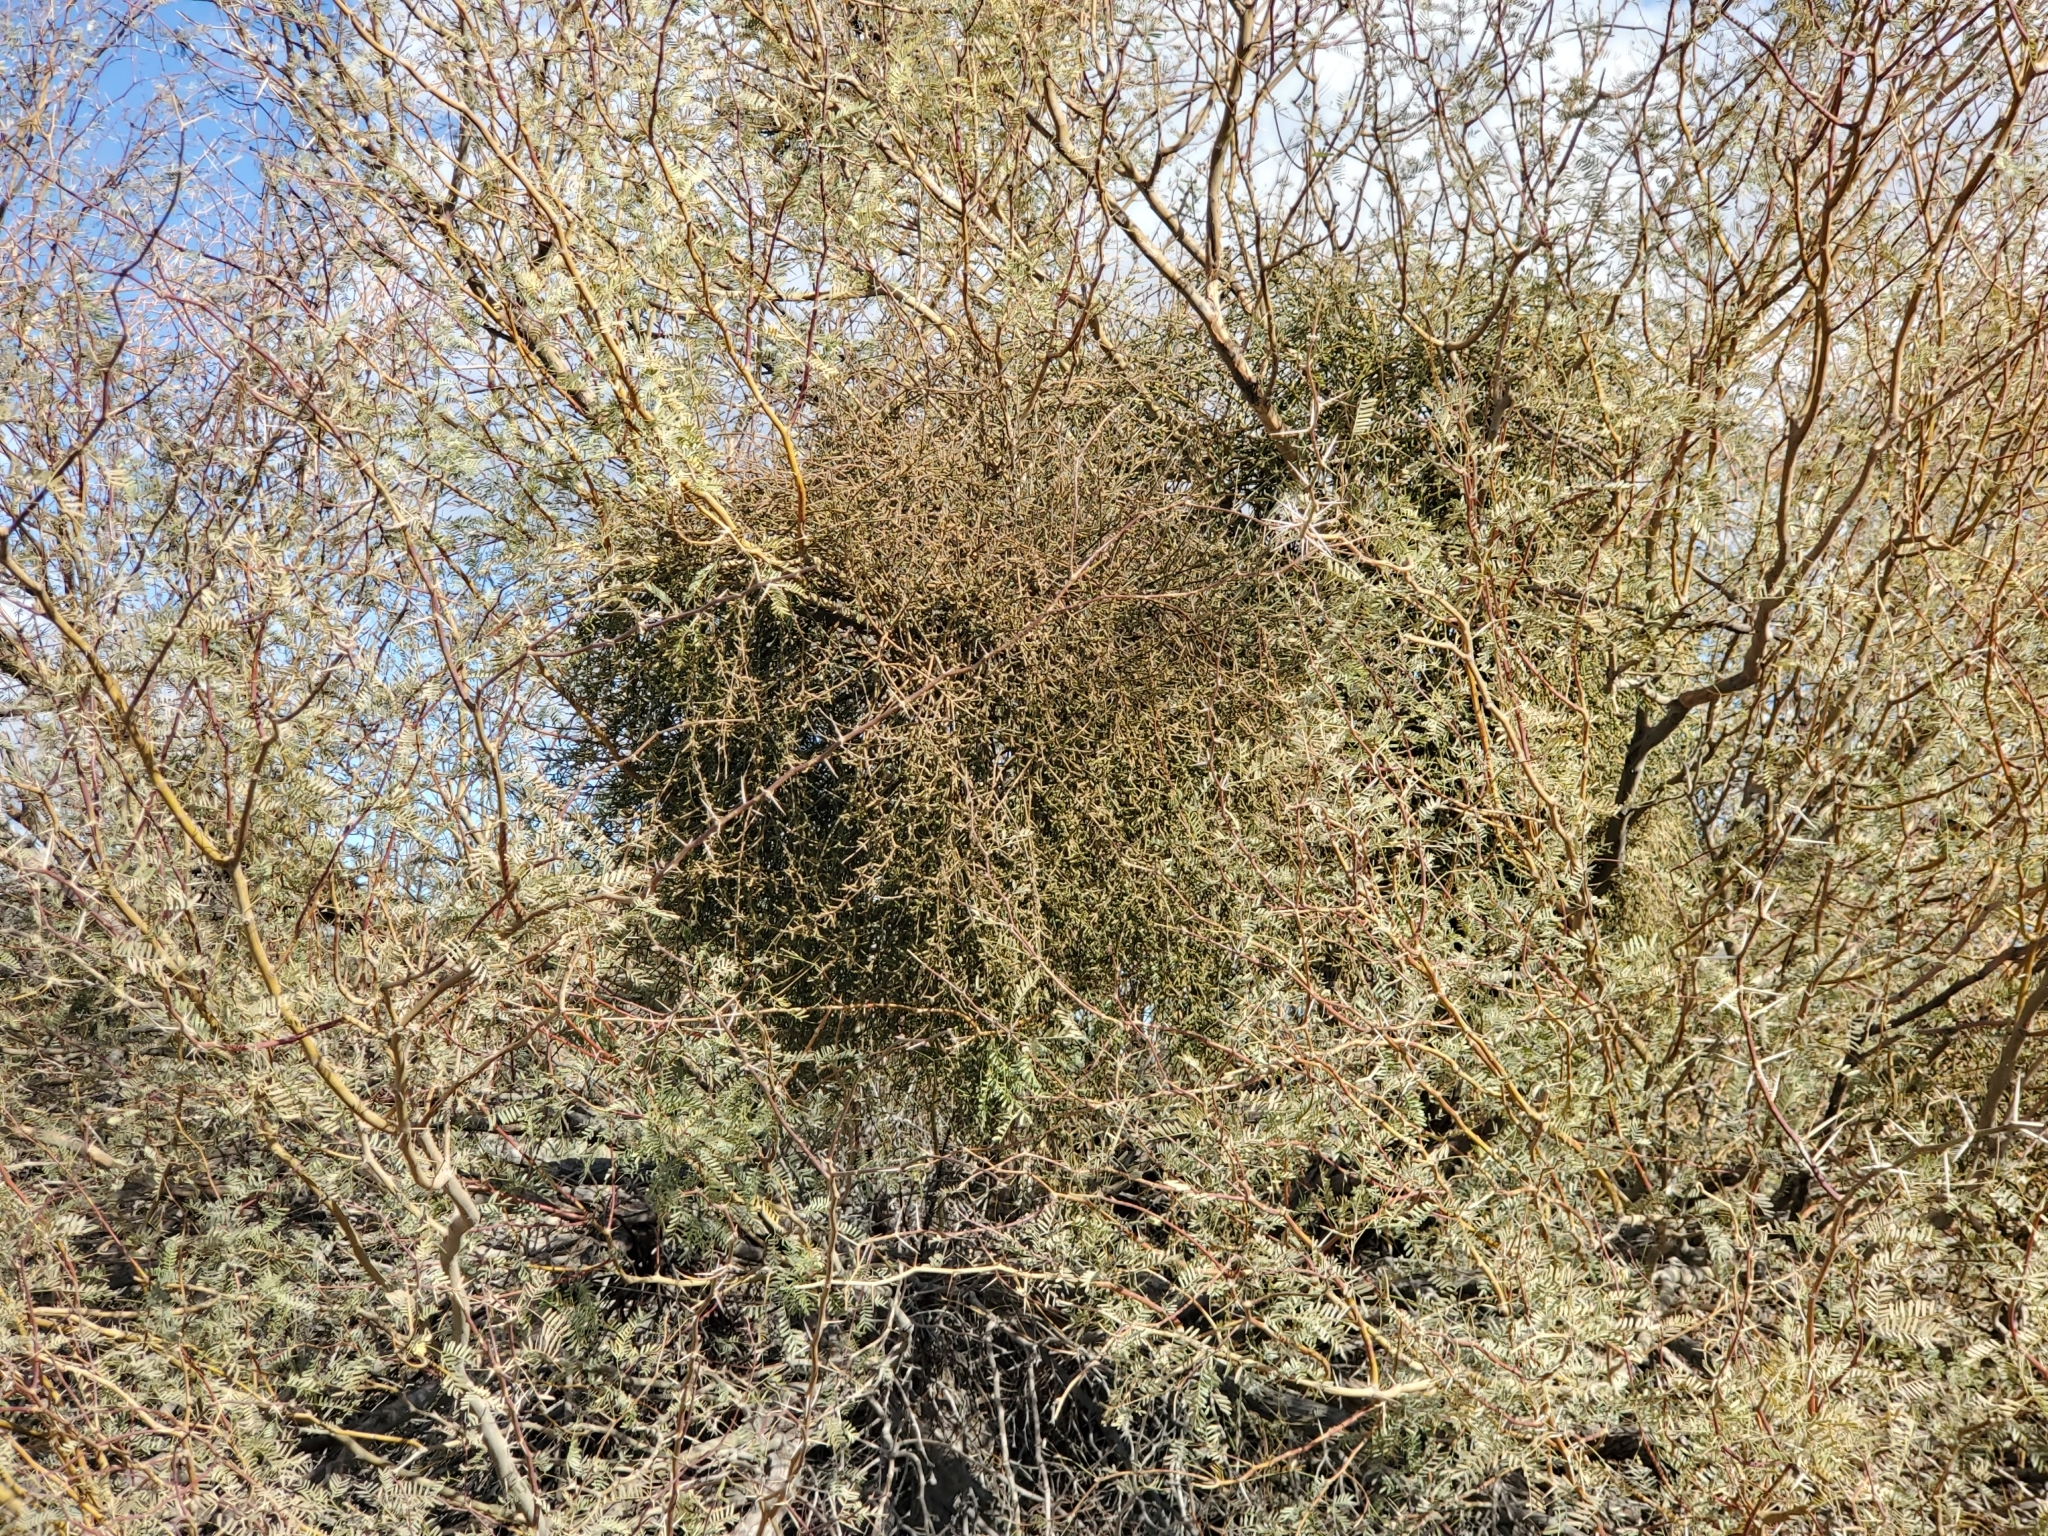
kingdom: Plantae
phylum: Tracheophyta
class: Magnoliopsida
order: Santalales
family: Viscaceae
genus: Phoradendron
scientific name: Phoradendron californicum
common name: Acacia mistletoe
